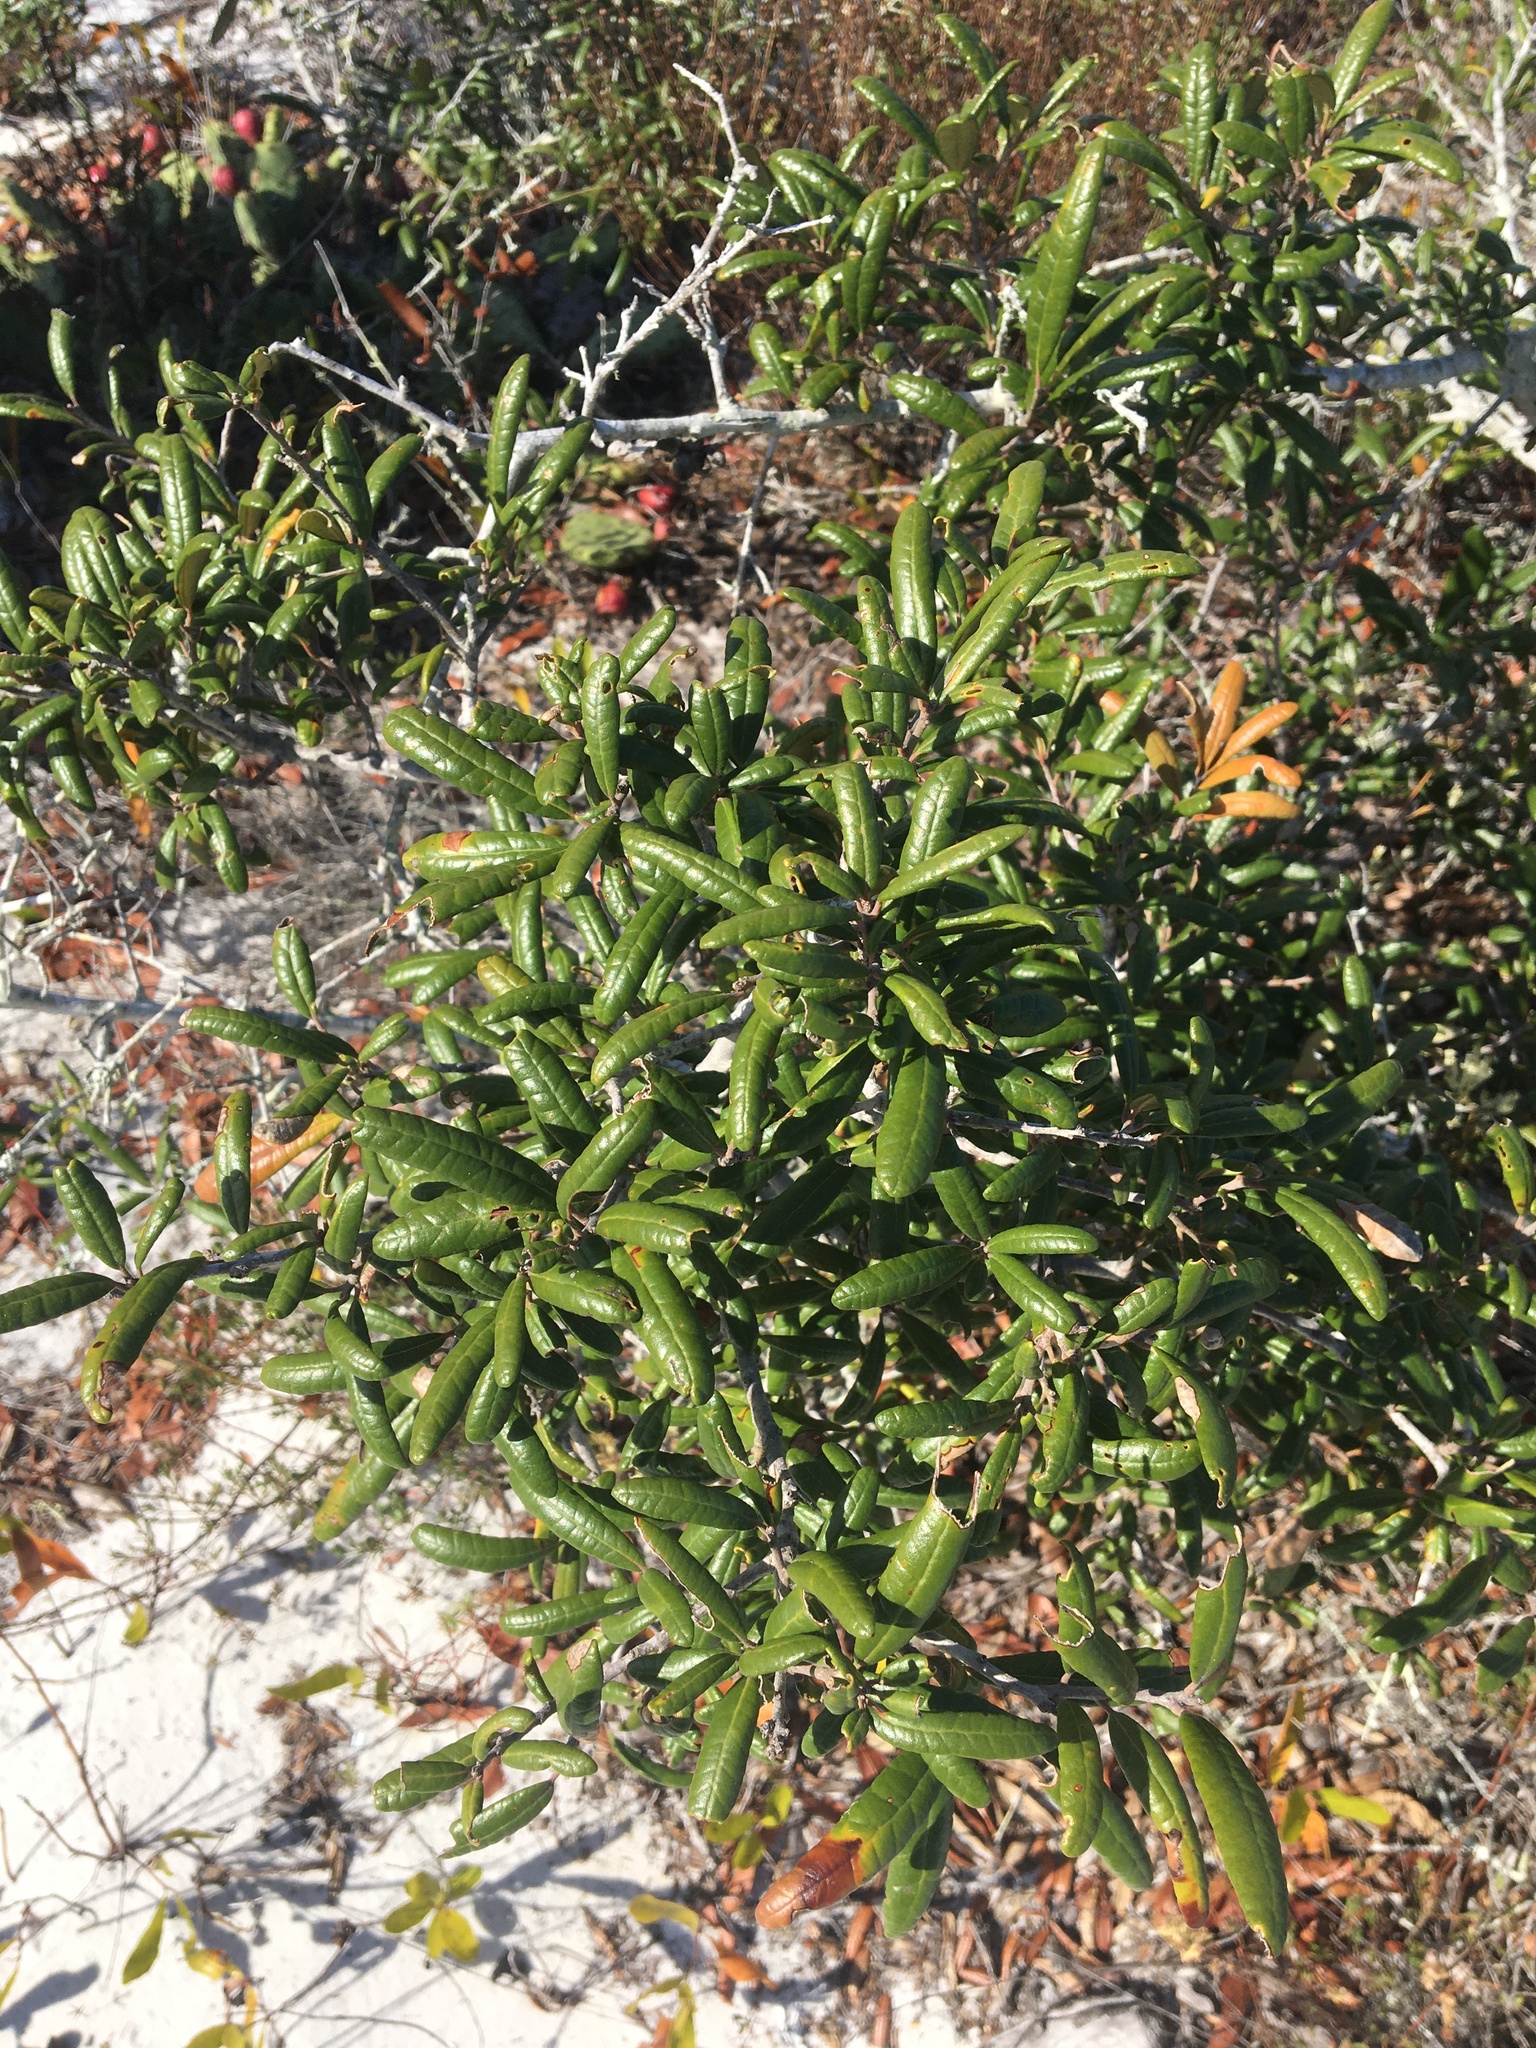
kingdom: Plantae
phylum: Tracheophyta
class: Magnoliopsida
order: Fagales
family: Fagaceae
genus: Quercus
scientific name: Quercus geminata
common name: Sand live oak
